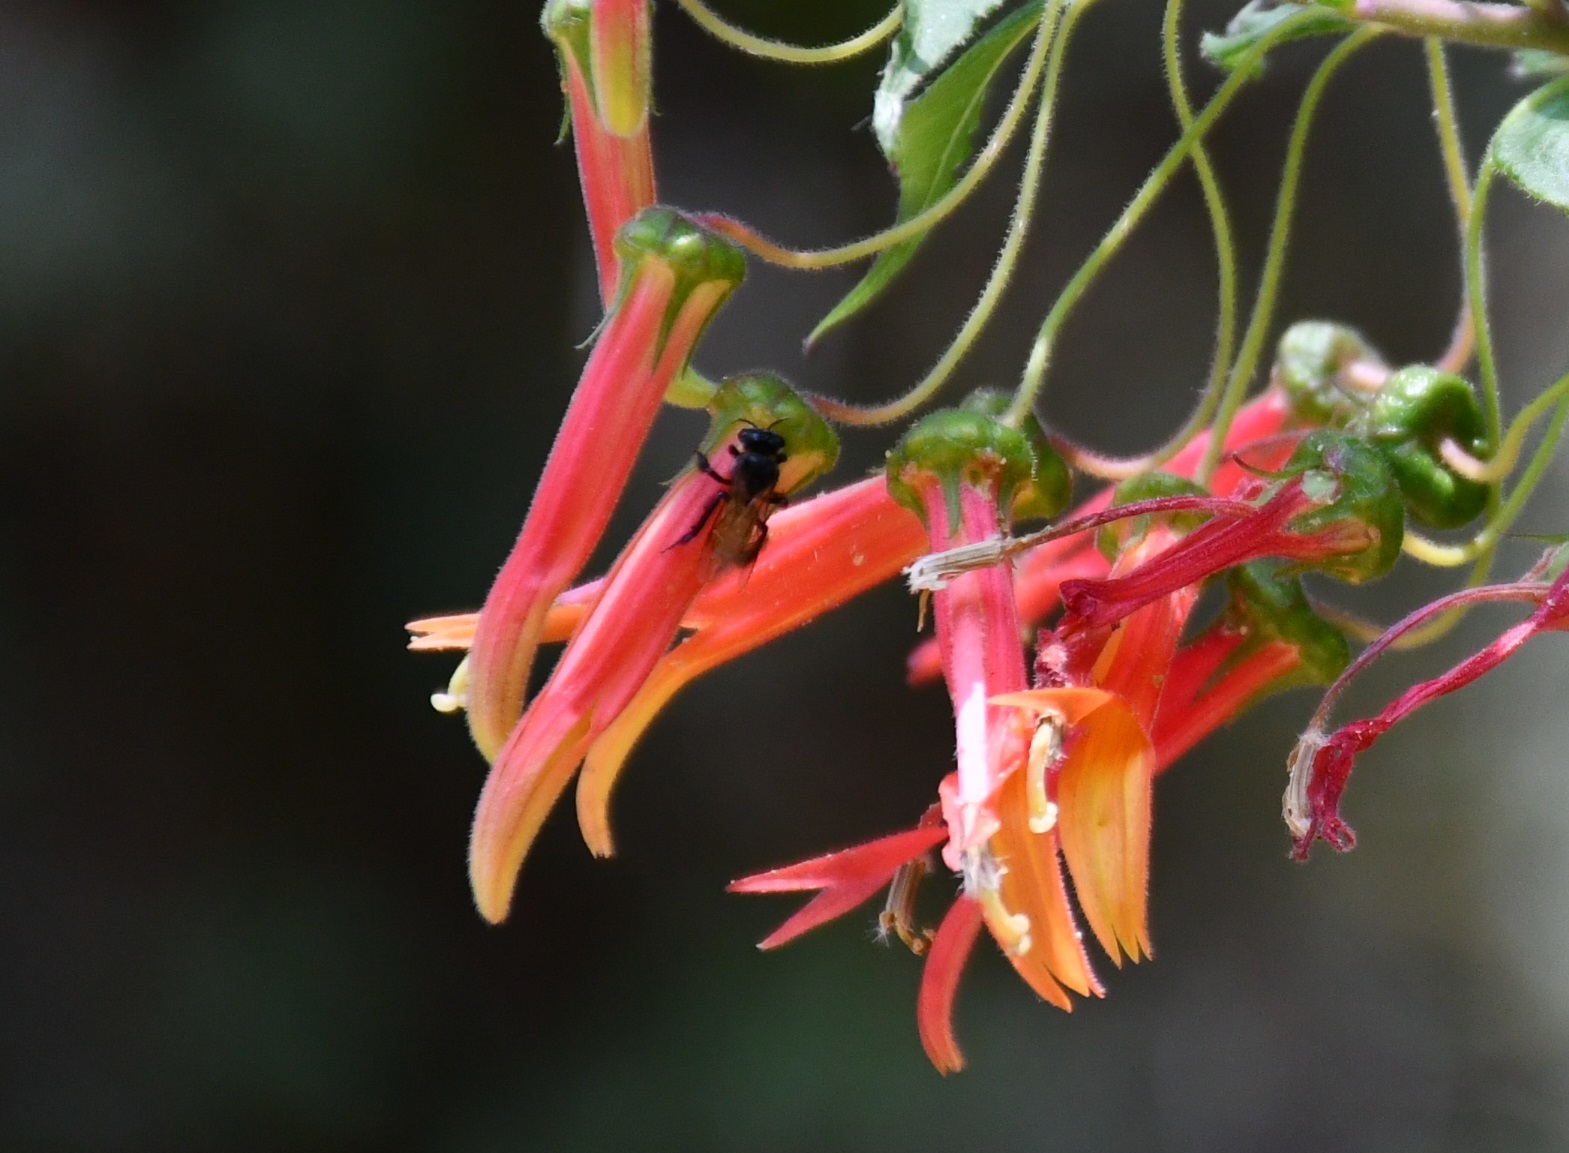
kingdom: Animalia
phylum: Arthropoda
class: Insecta
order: Hymenoptera
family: Apidae
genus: Trigona
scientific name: Trigona fulviventris
